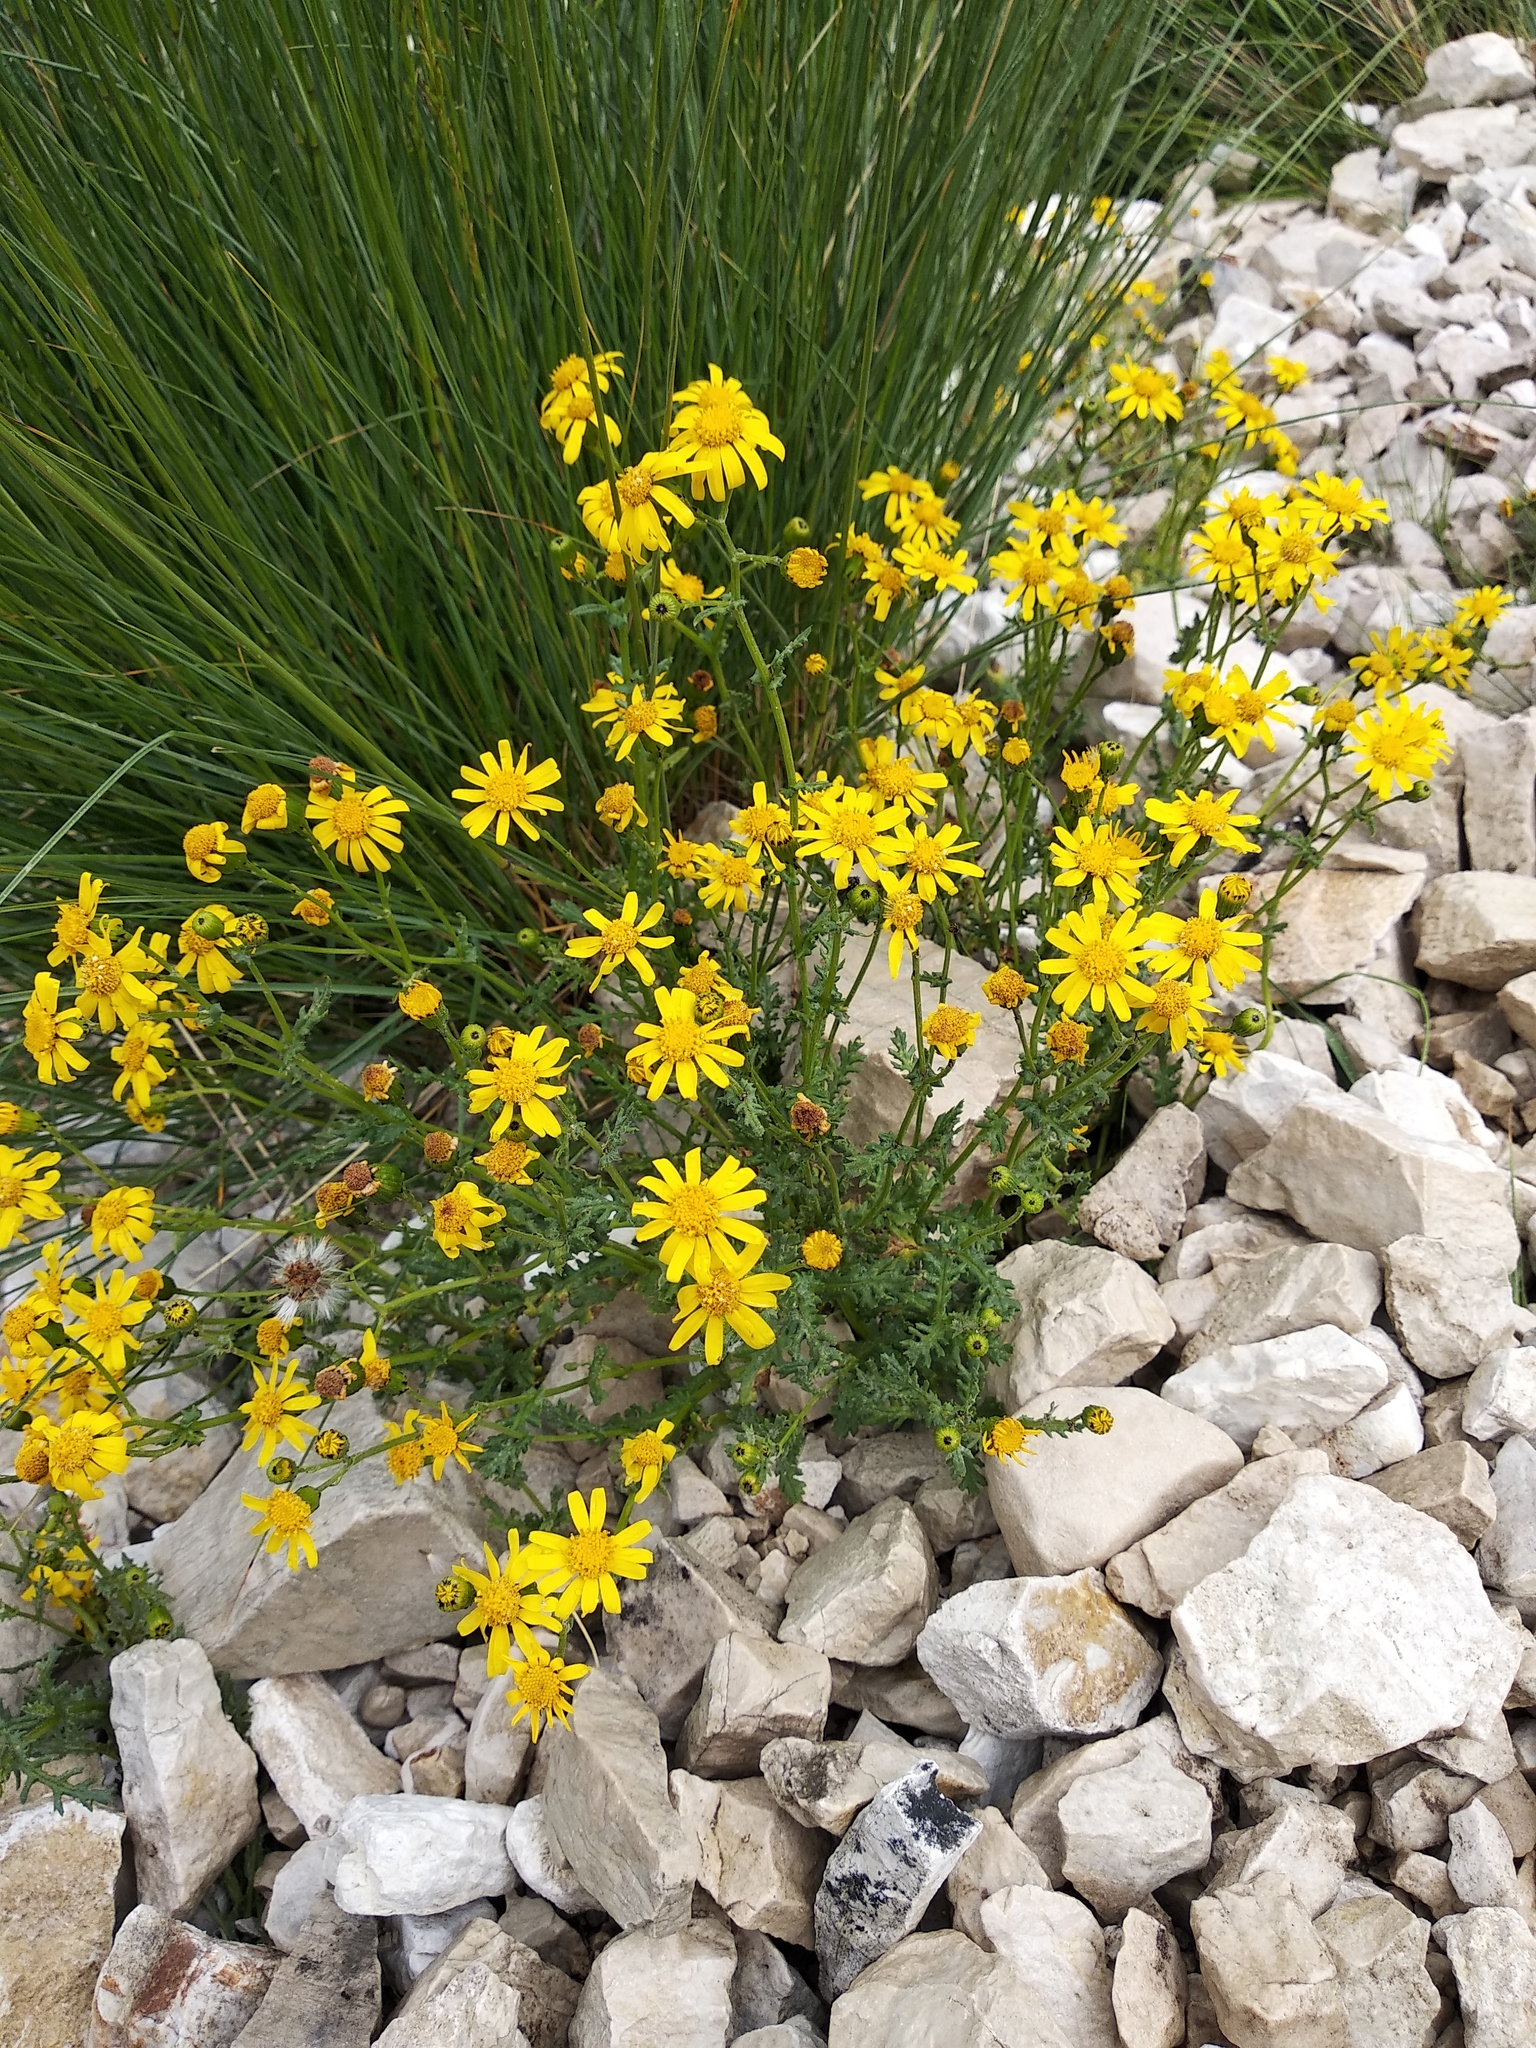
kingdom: Plantae
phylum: Tracheophyta
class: Magnoliopsida
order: Asterales
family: Asteraceae
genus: Senecio
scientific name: Senecio rupestris
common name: Rock ragwort
